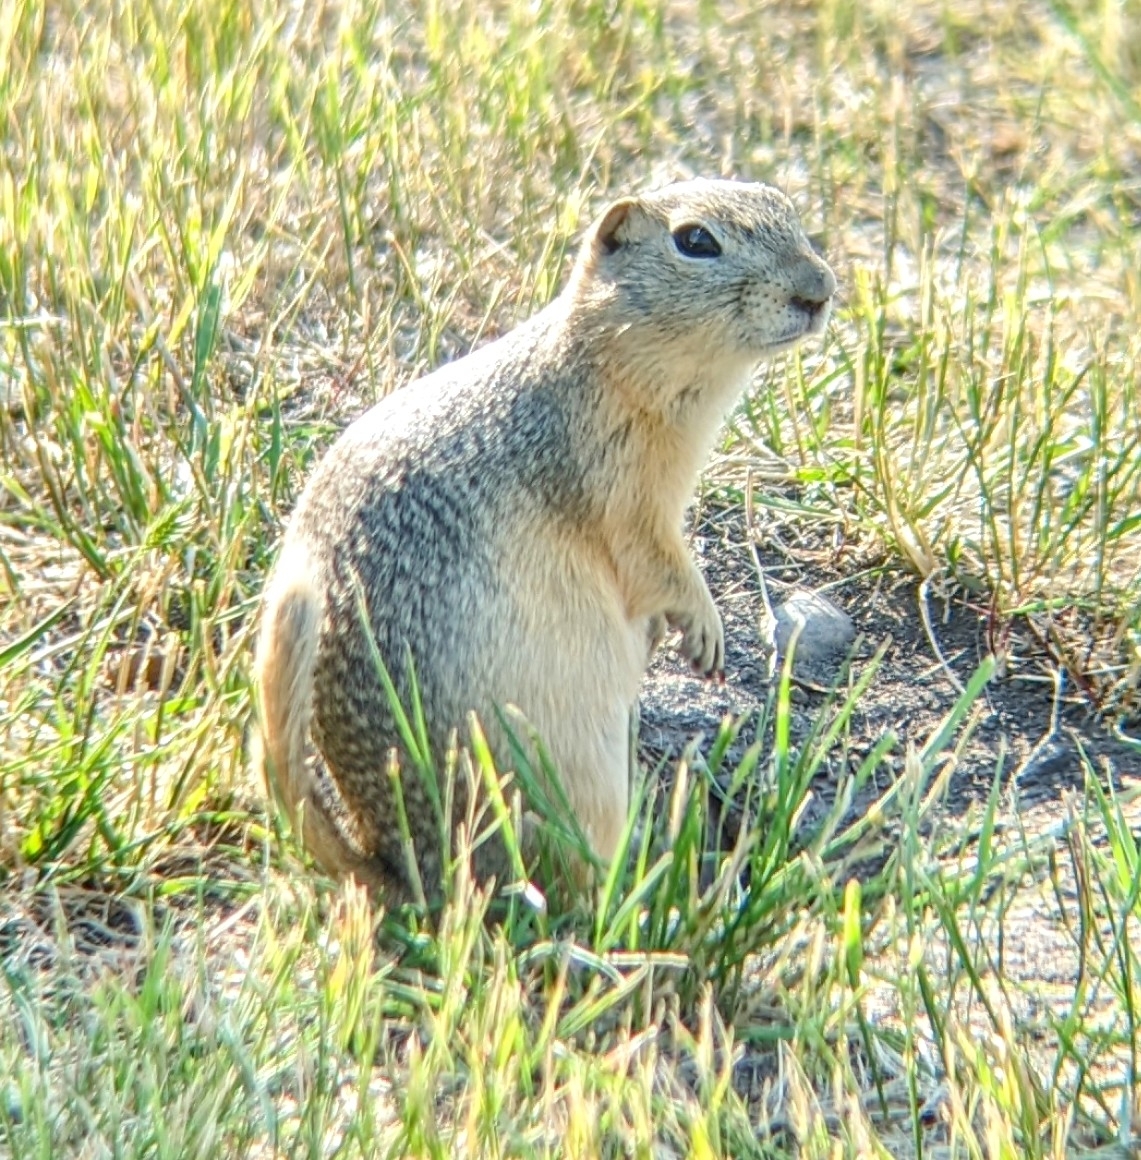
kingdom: Animalia
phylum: Chordata
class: Mammalia
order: Rodentia
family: Sciuridae
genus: Urocitellus
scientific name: Urocitellus richardsonii
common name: Richardson's ground squirrel
